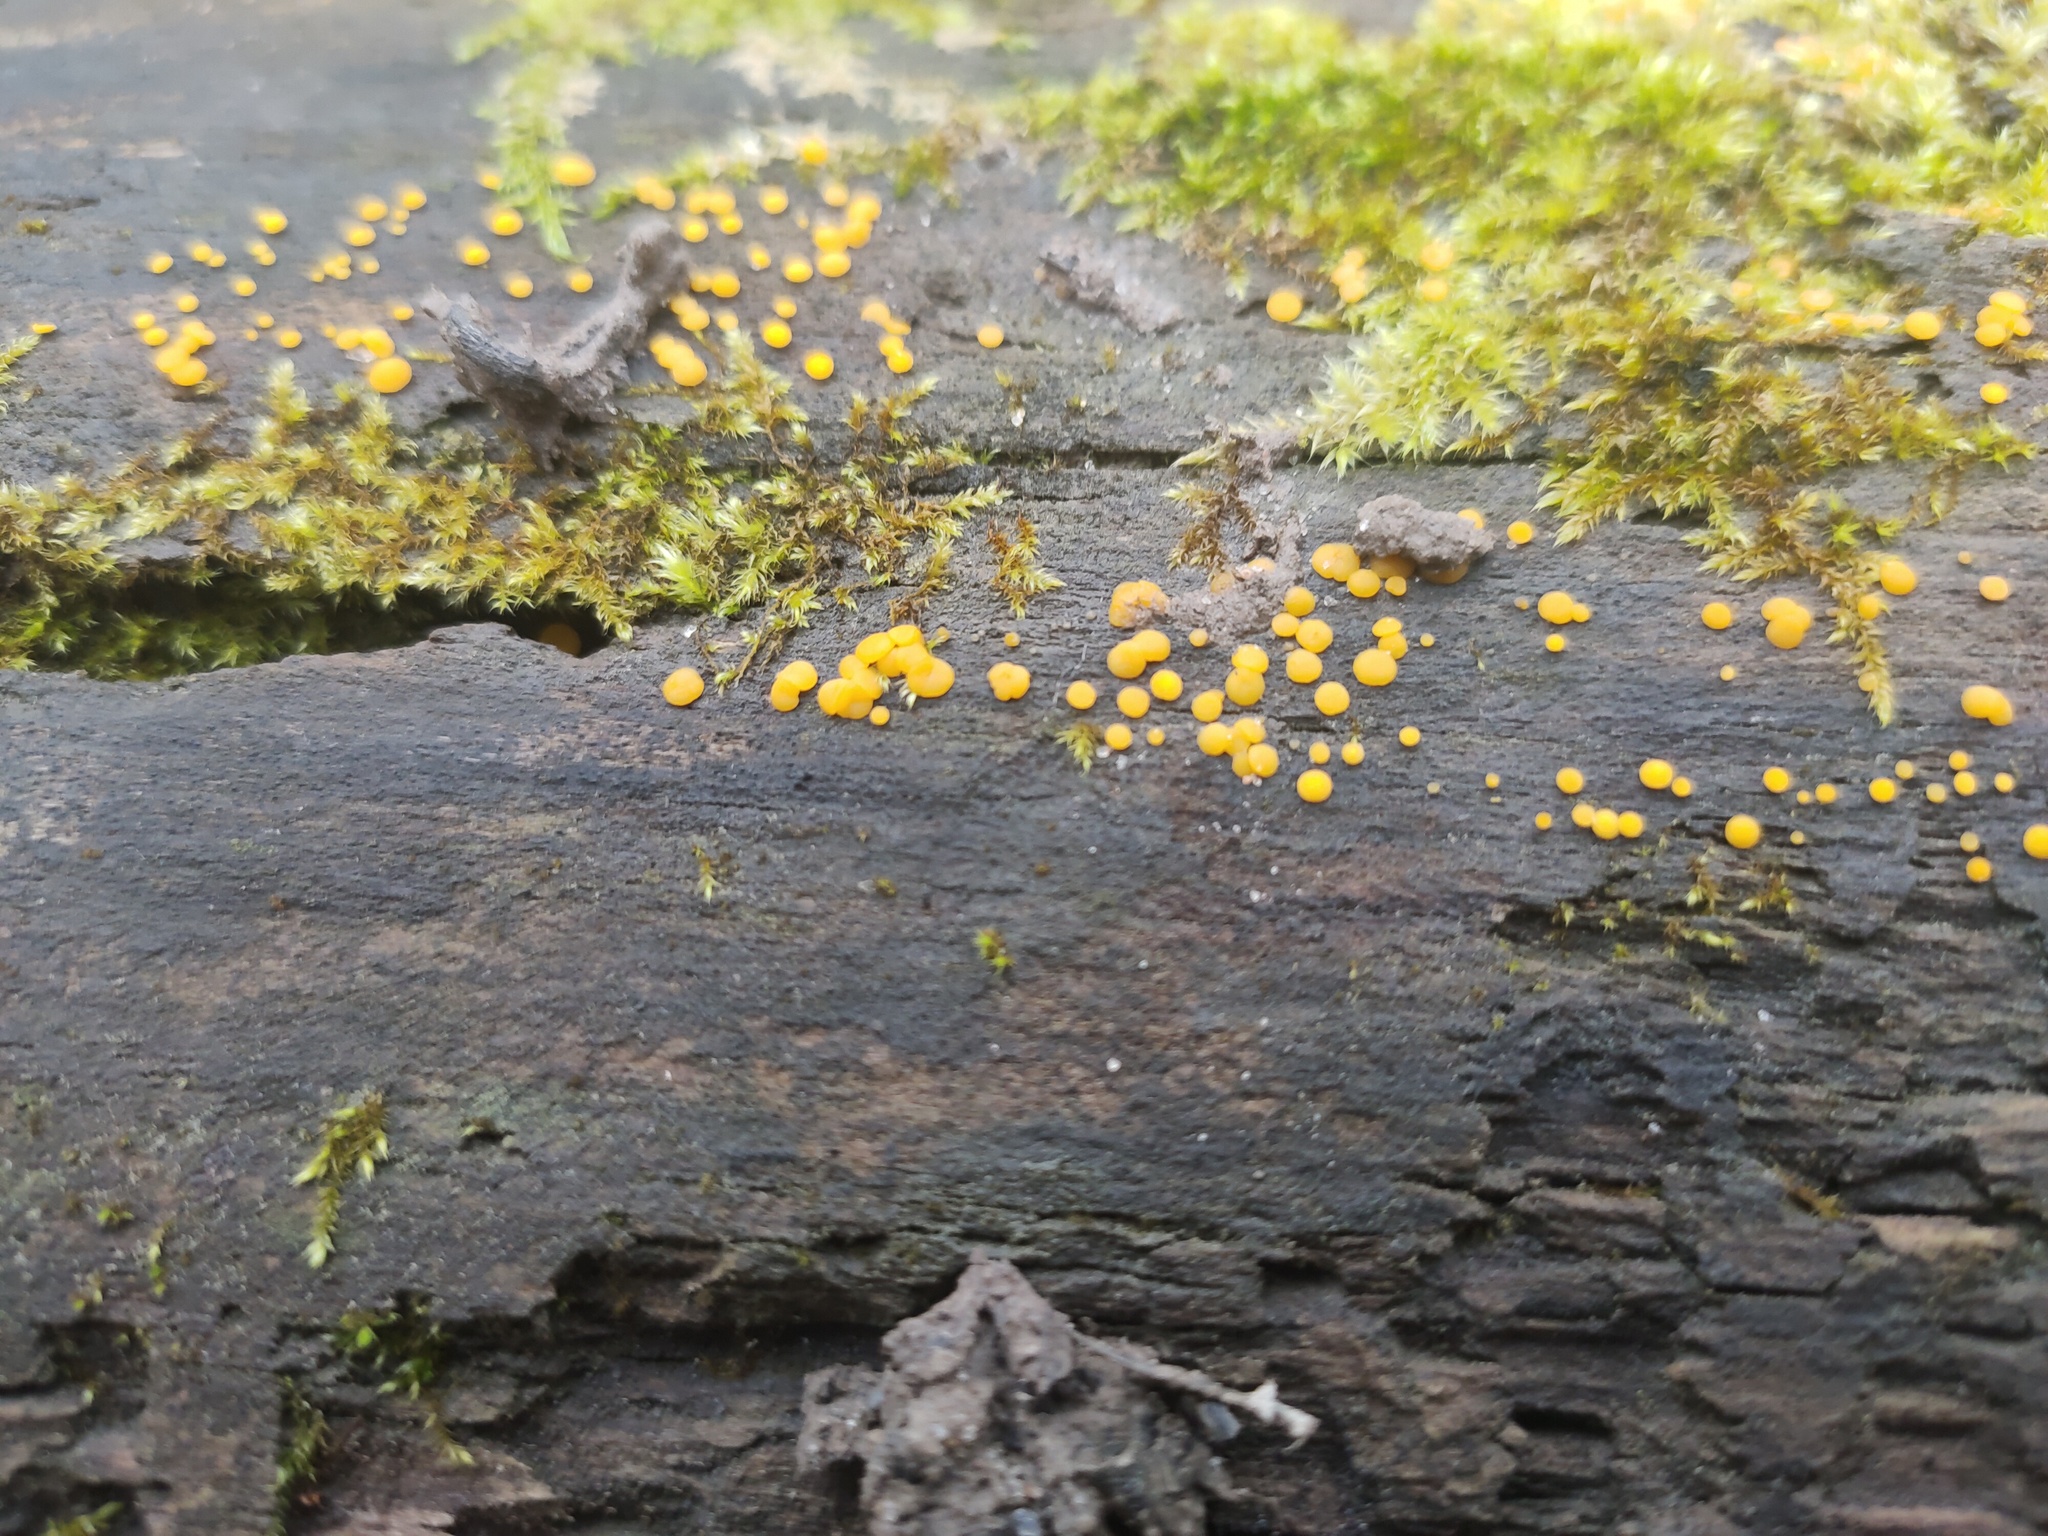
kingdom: Fungi
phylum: Ascomycota
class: Leotiomycetes
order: Helotiales
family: Pezizellaceae
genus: Calycina
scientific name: Calycina citrina
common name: Yellow fairy cups
